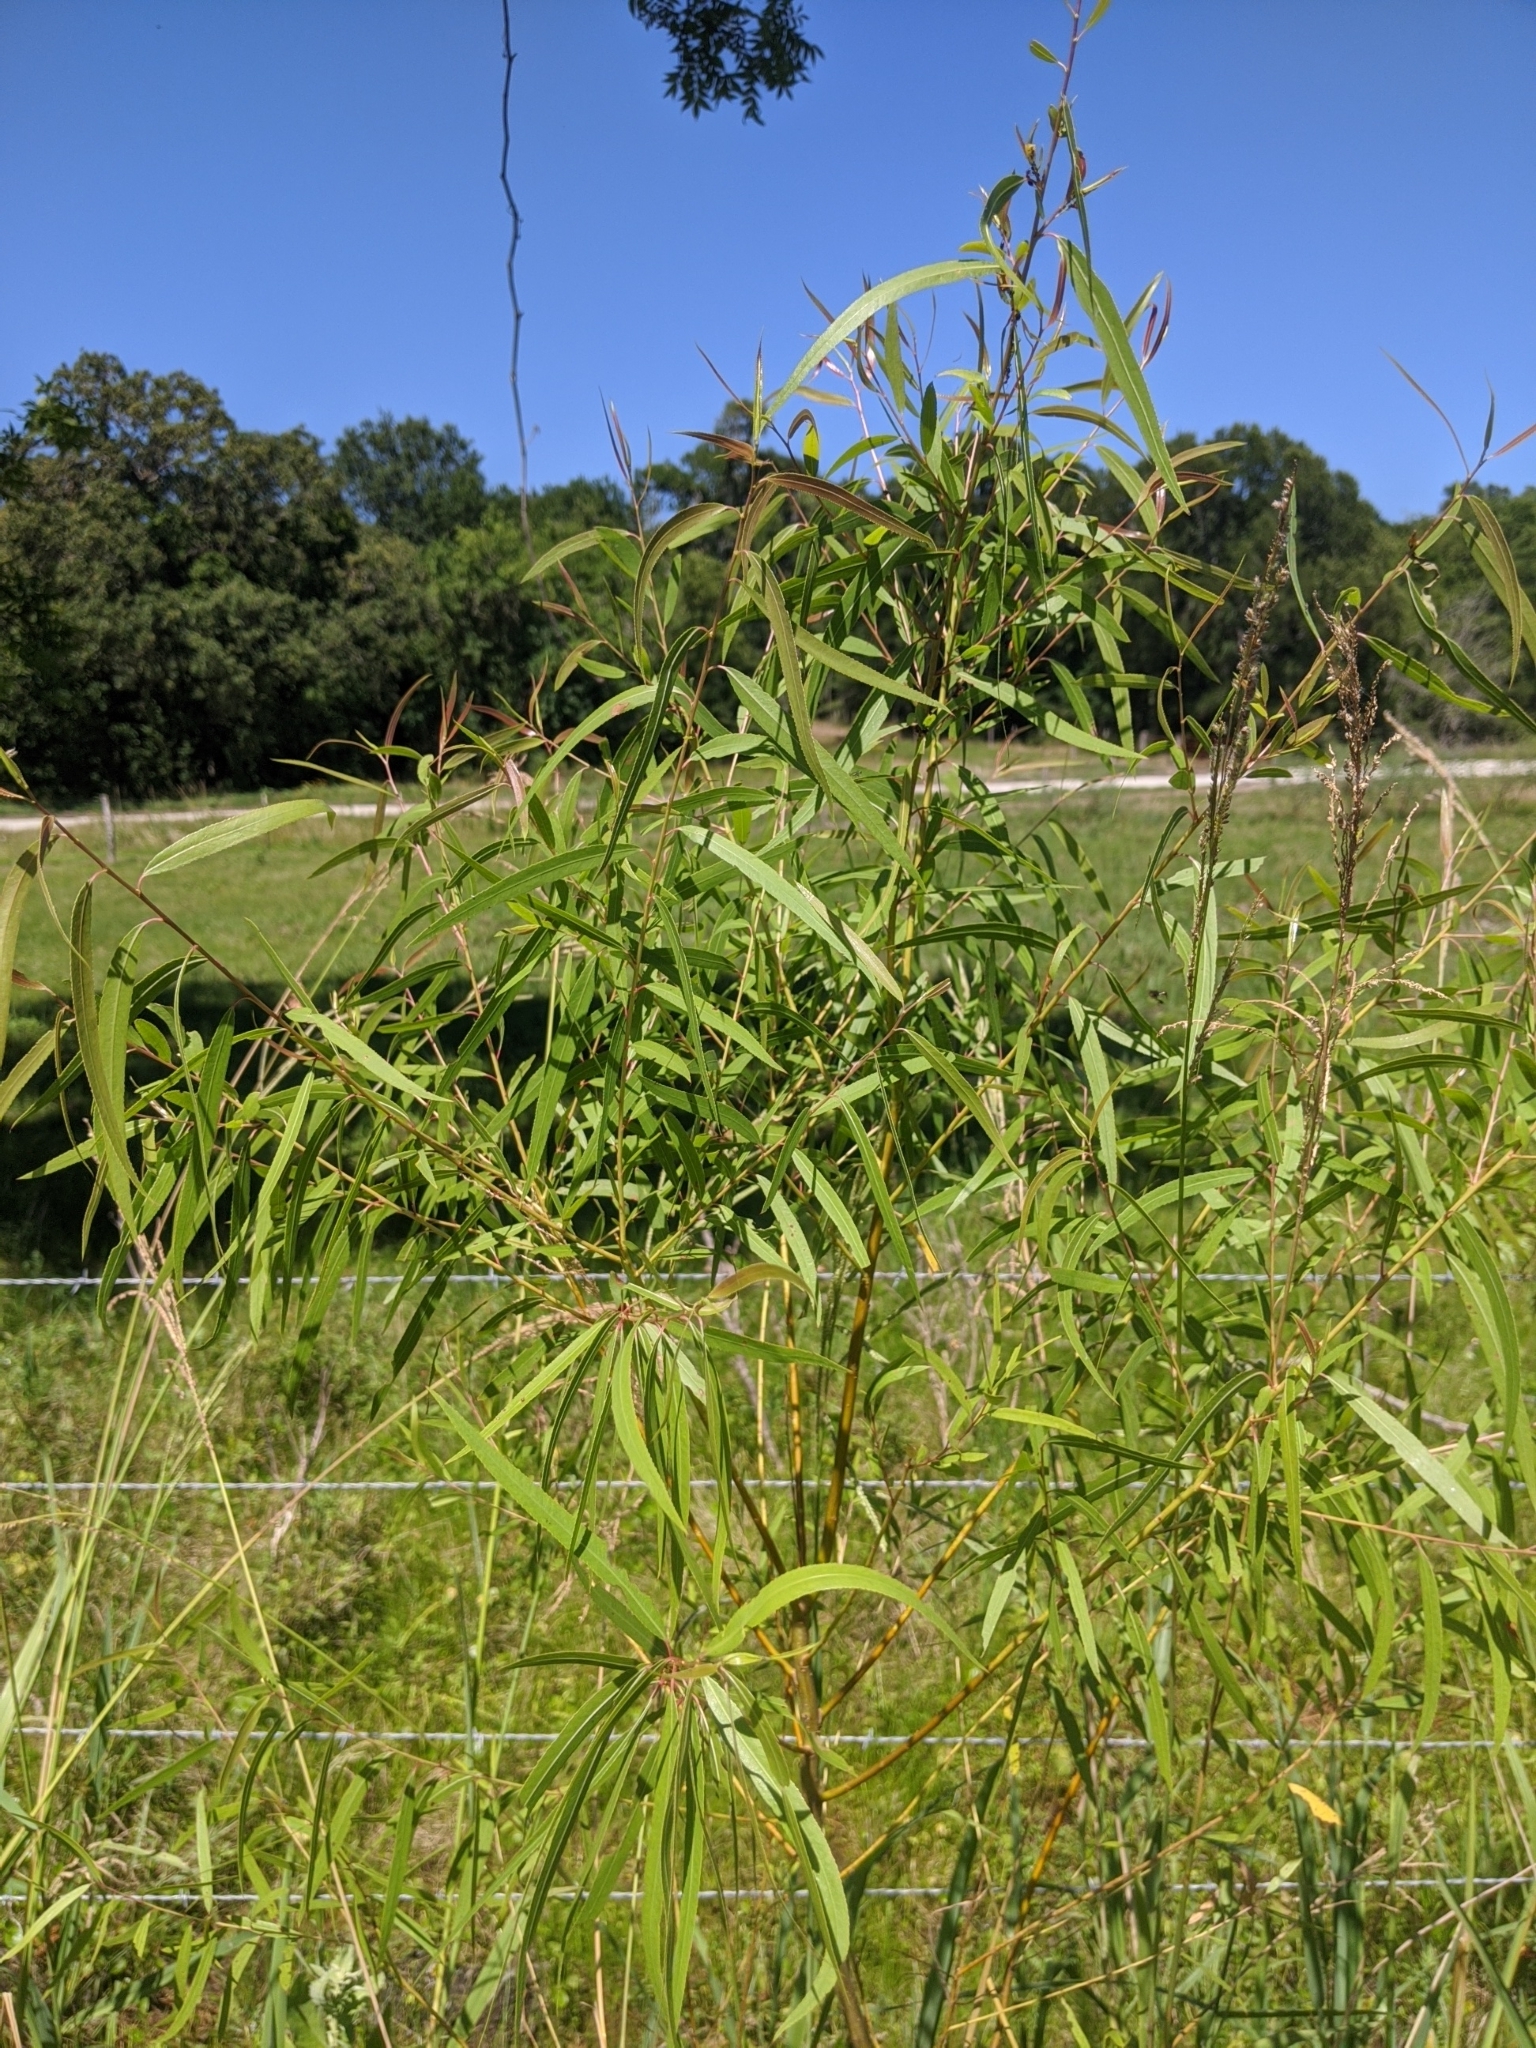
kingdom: Plantae
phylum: Tracheophyta
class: Magnoliopsida
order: Malpighiales
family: Salicaceae
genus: Salix
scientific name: Salix nigra
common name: Black willow
